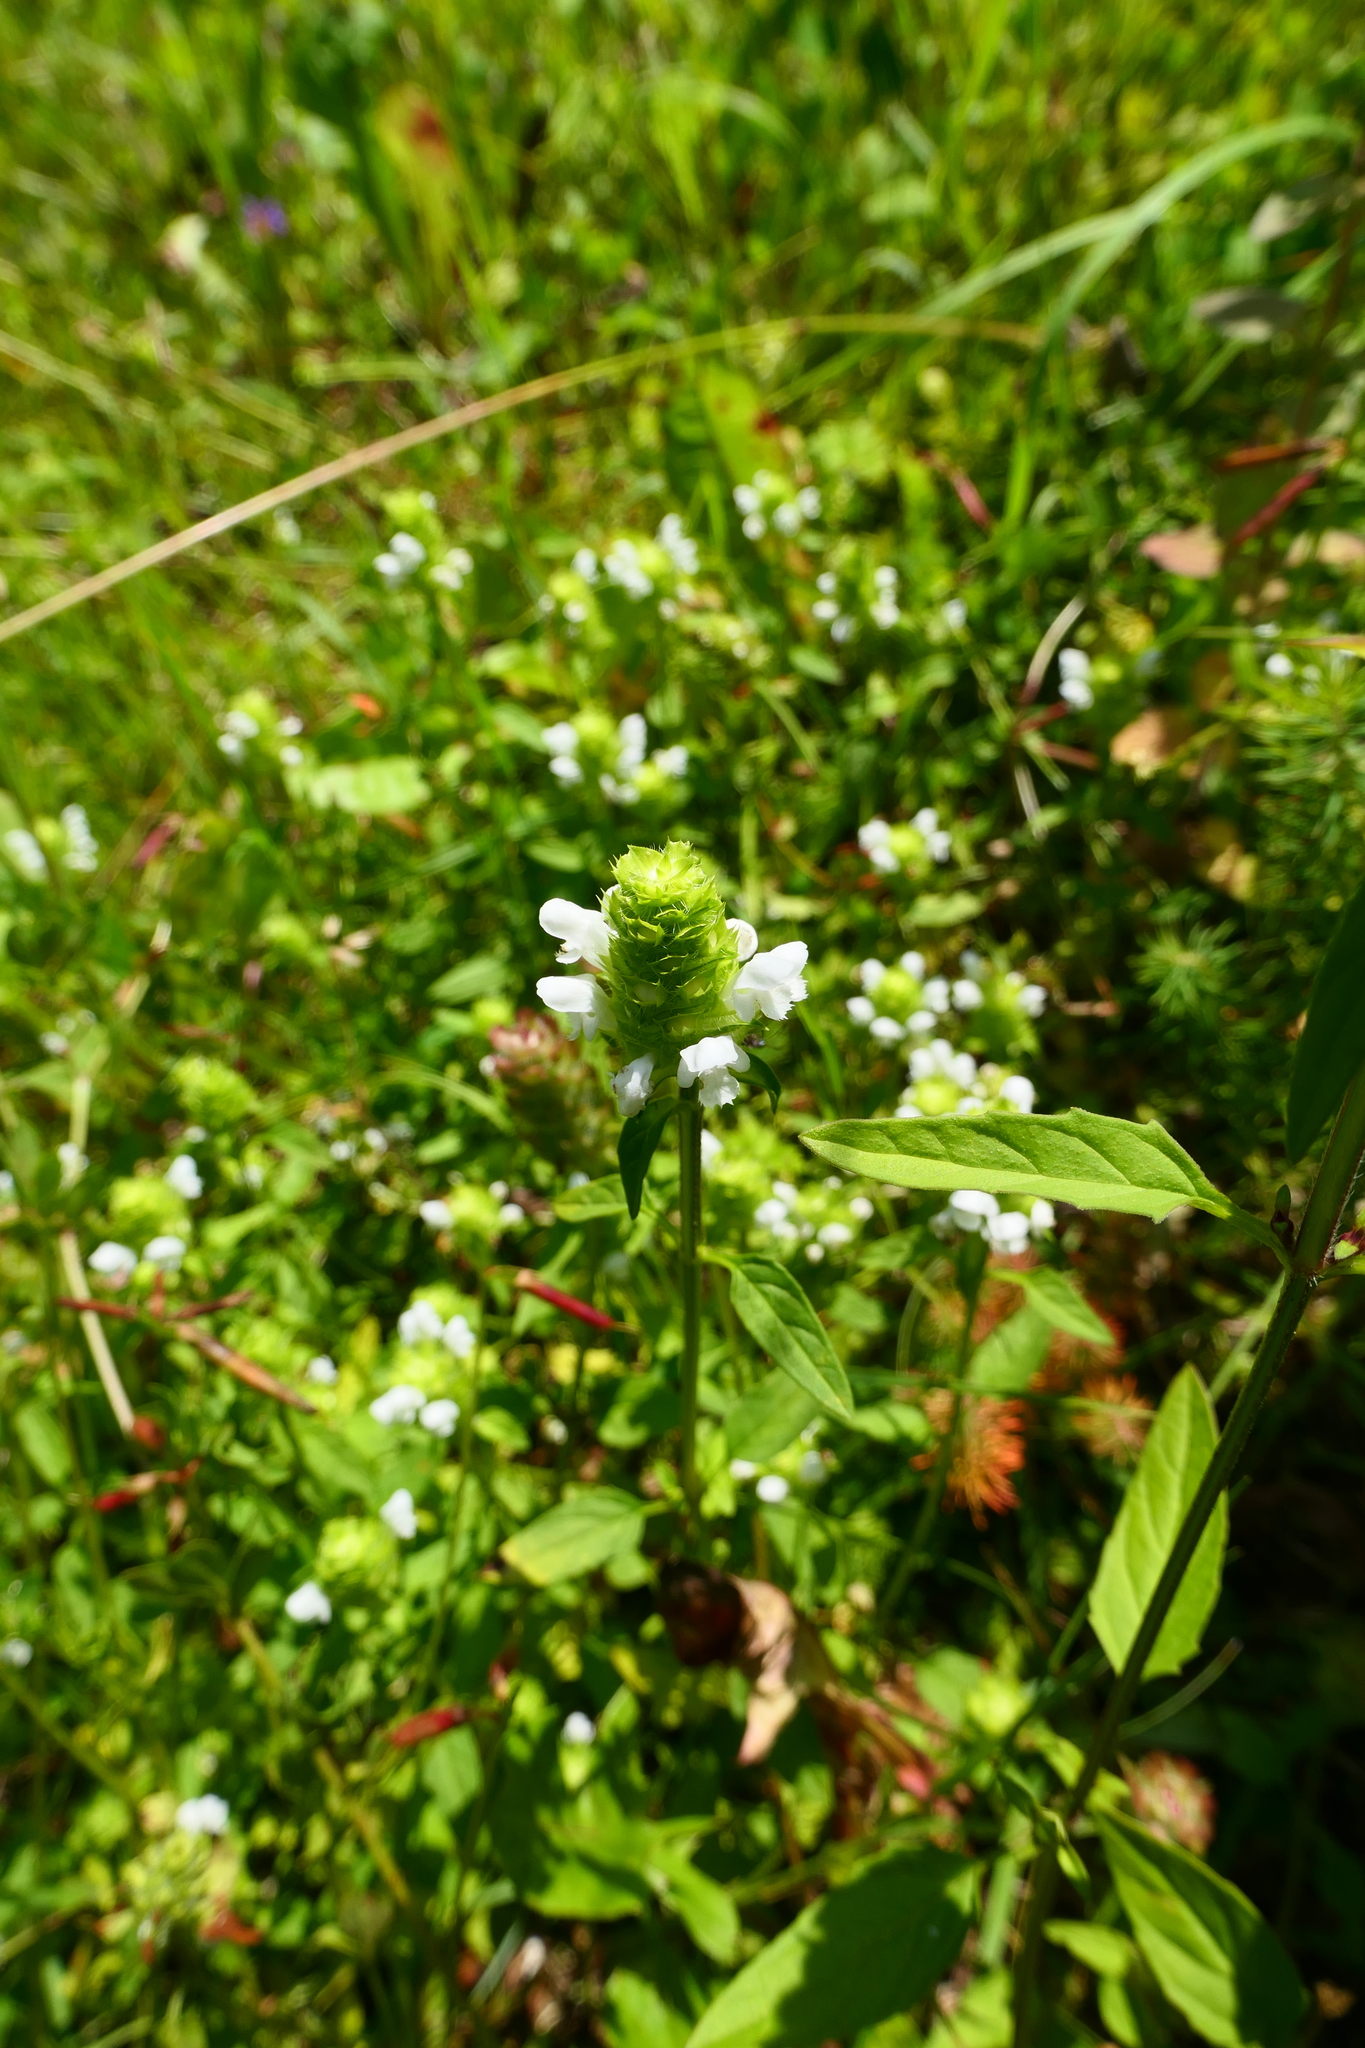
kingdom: Plantae
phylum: Tracheophyta
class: Magnoliopsida
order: Lamiales
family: Lamiaceae
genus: Prunella
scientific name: Prunella vulgaris
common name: Heal-all
